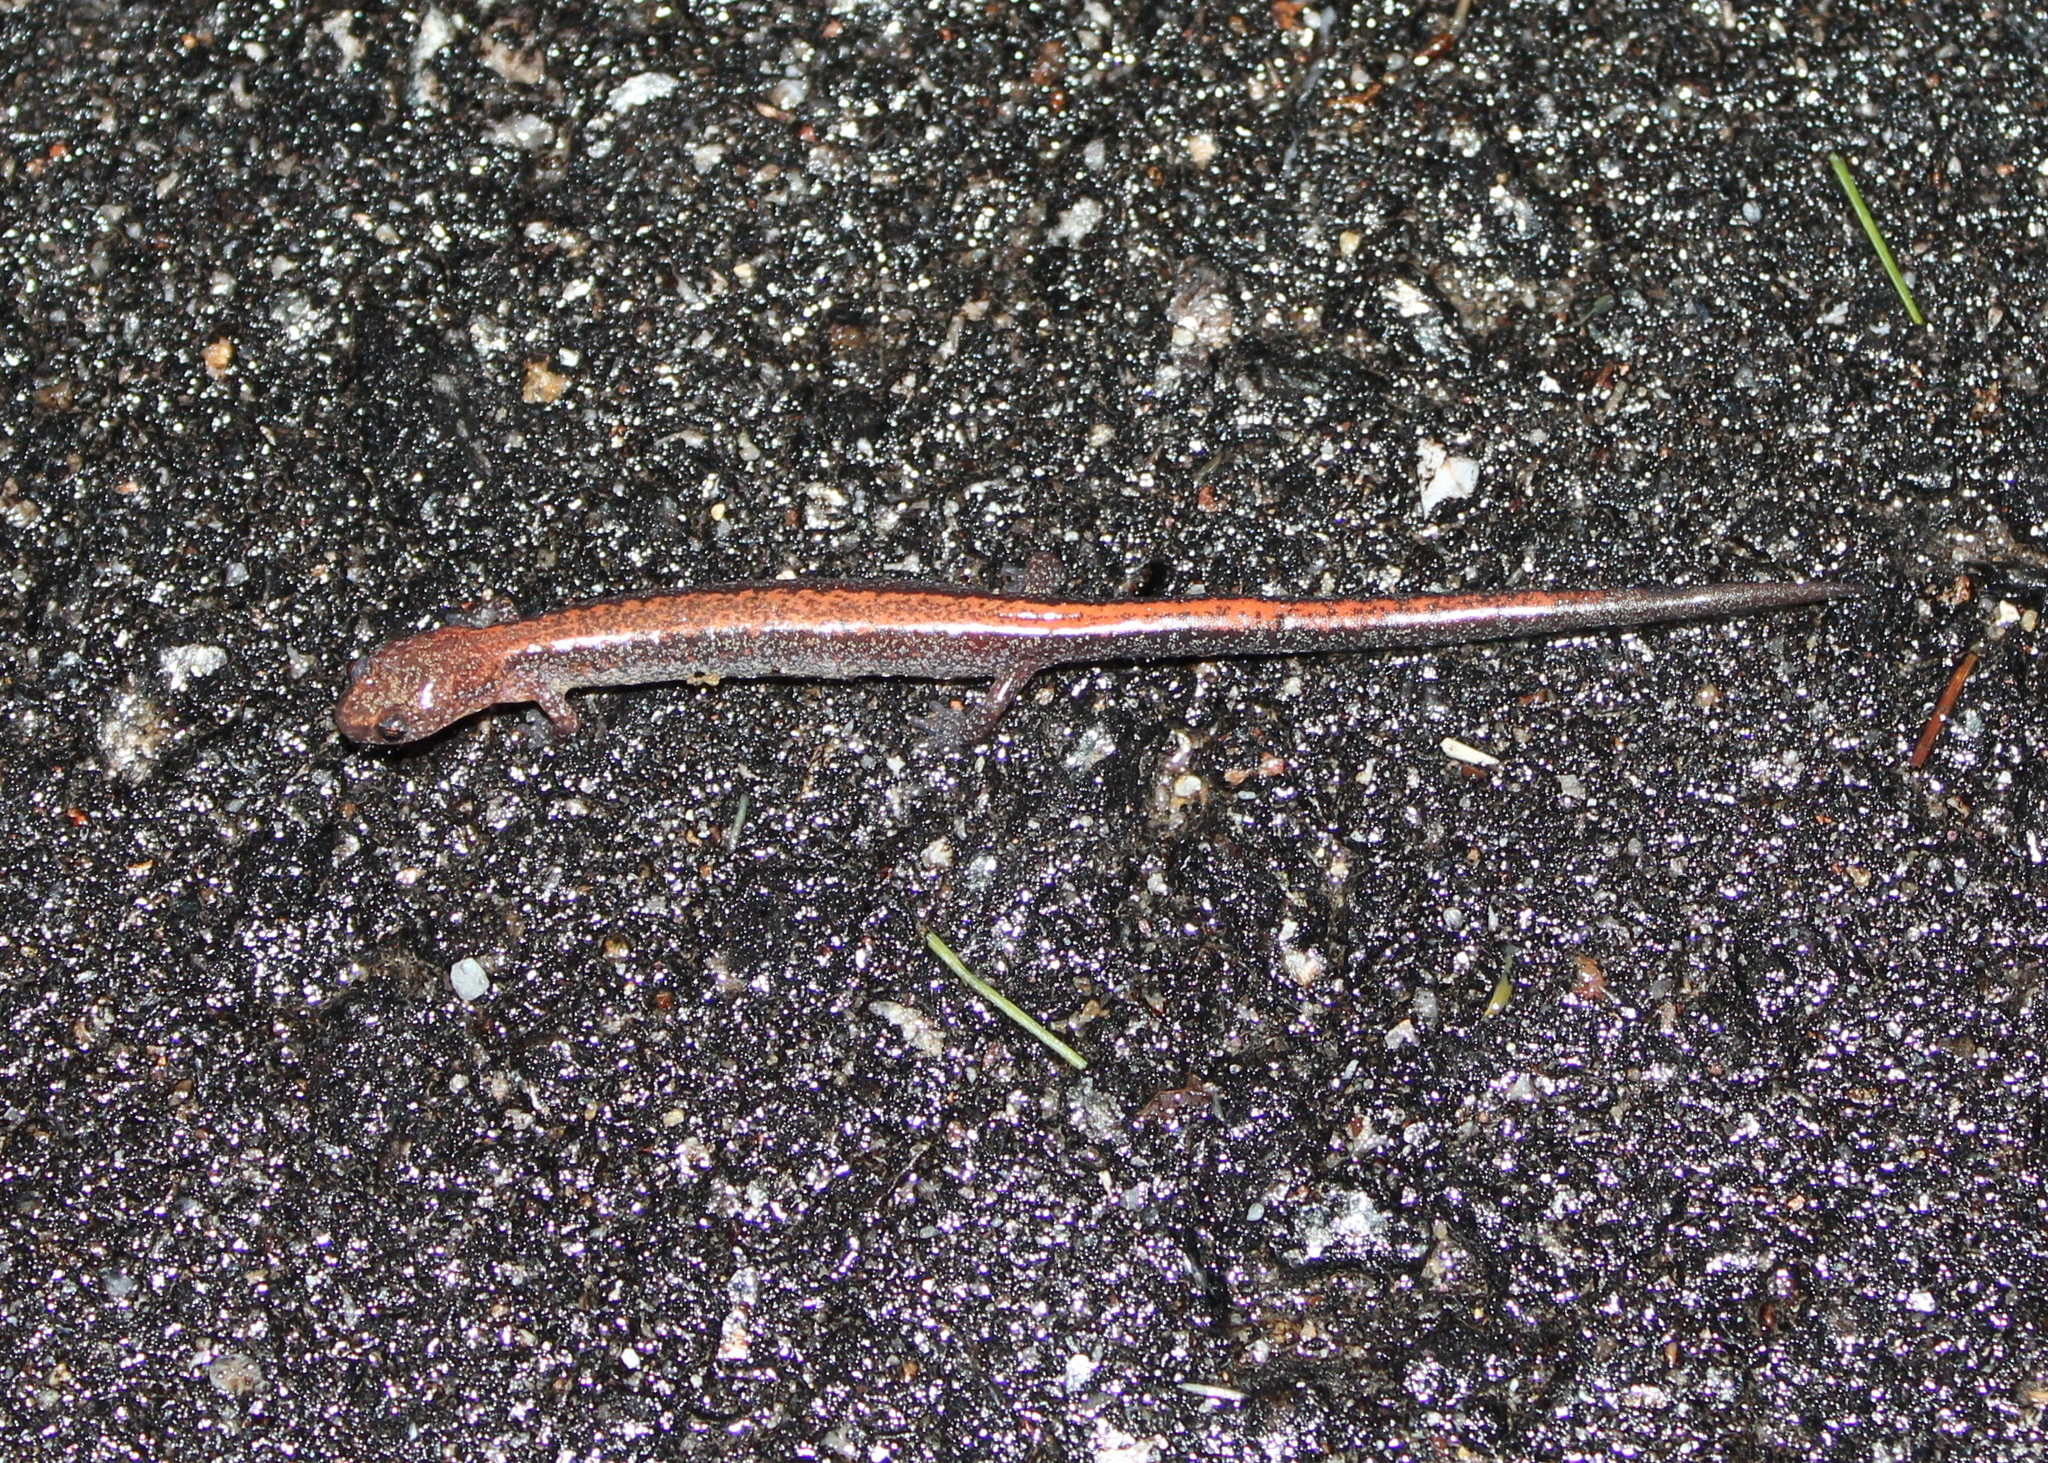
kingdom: Animalia
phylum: Chordata
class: Amphibia
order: Caudata
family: Plethodontidae
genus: Plethodon
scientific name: Plethodon cinereus
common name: Redback salamander
